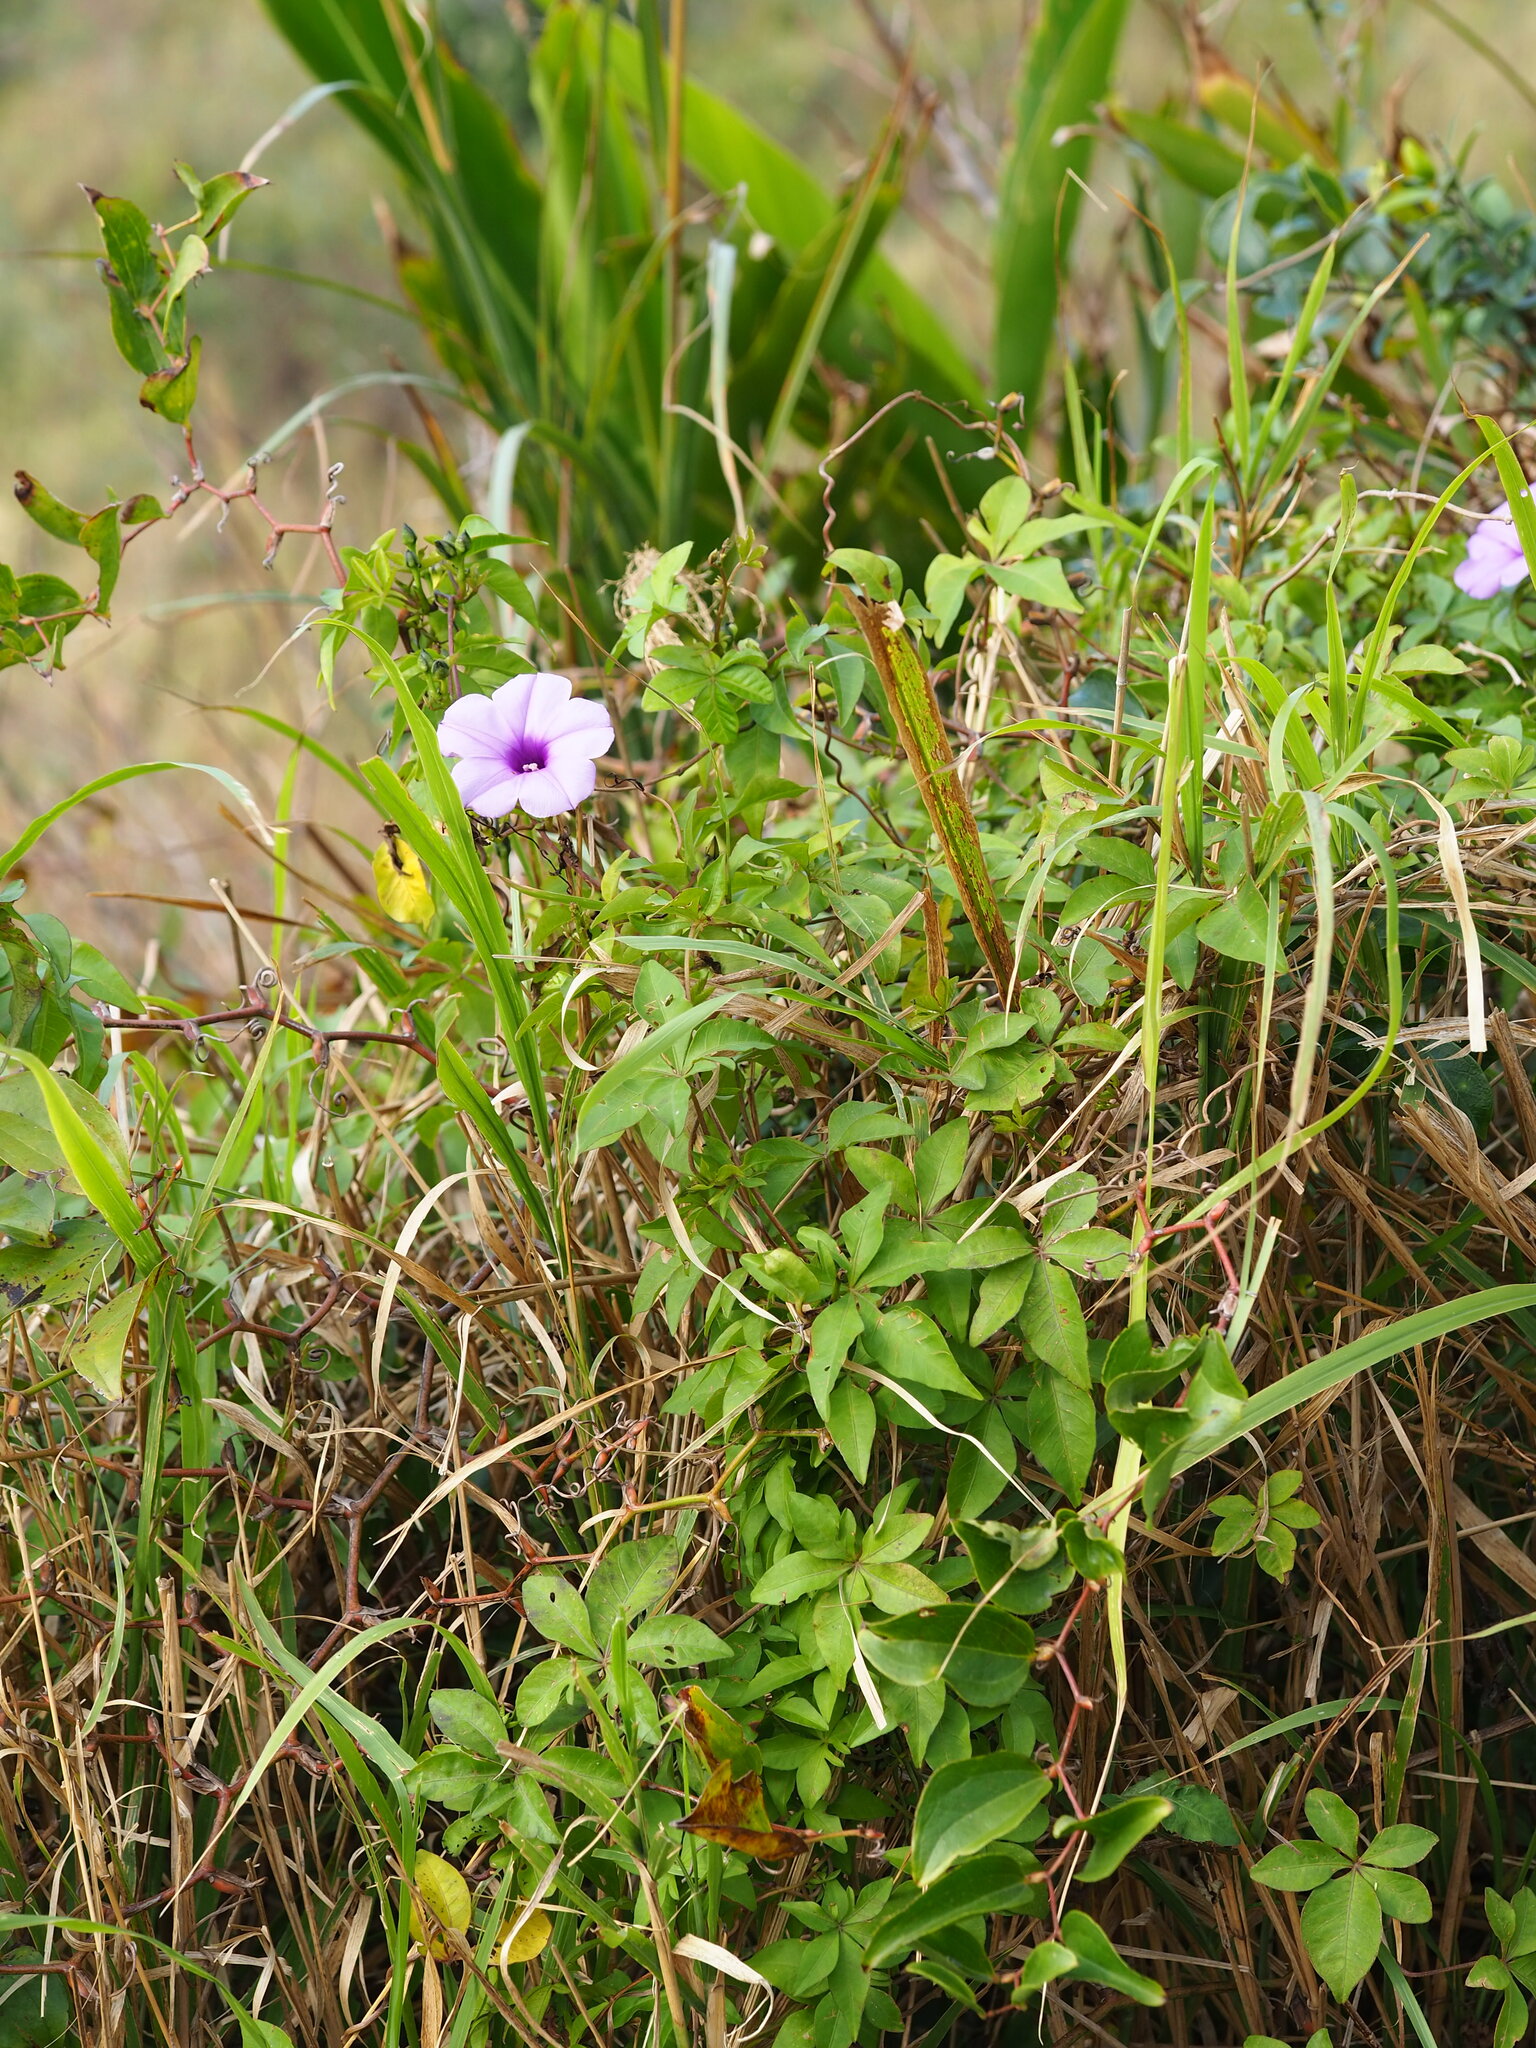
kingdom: Plantae
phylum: Tracheophyta
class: Magnoliopsida
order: Solanales
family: Convolvulaceae
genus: Ipomoea
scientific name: Ipomoea cairica
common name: Mile a minute vine
